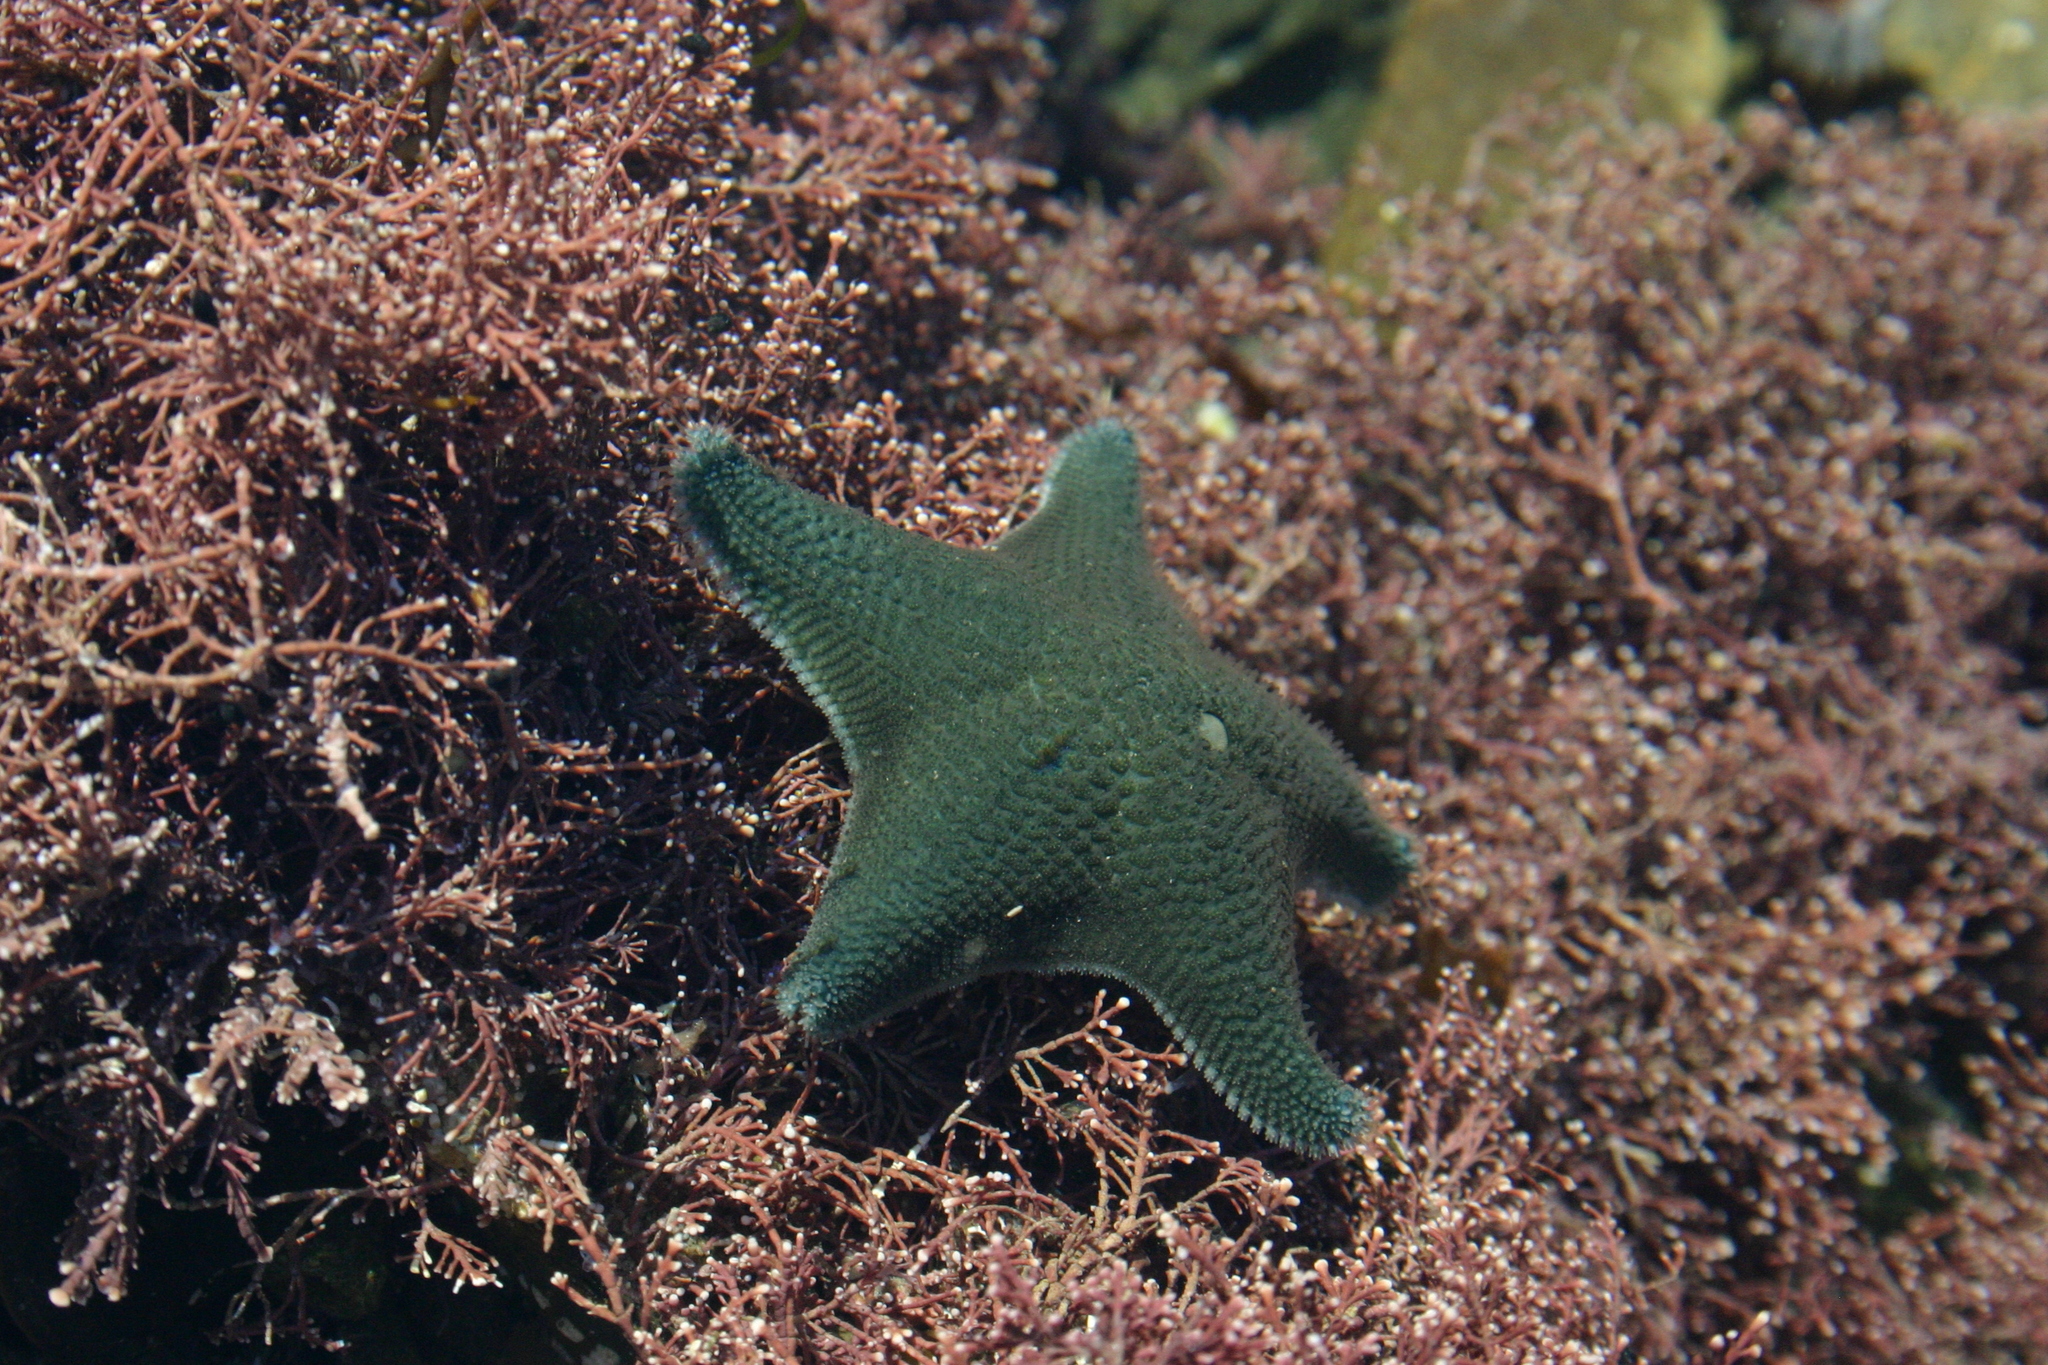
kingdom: Animalia
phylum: Echinodermata
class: Asteroidea
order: Valvatida
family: Asterinidae
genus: Patiriella
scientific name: Patiriella regularis
